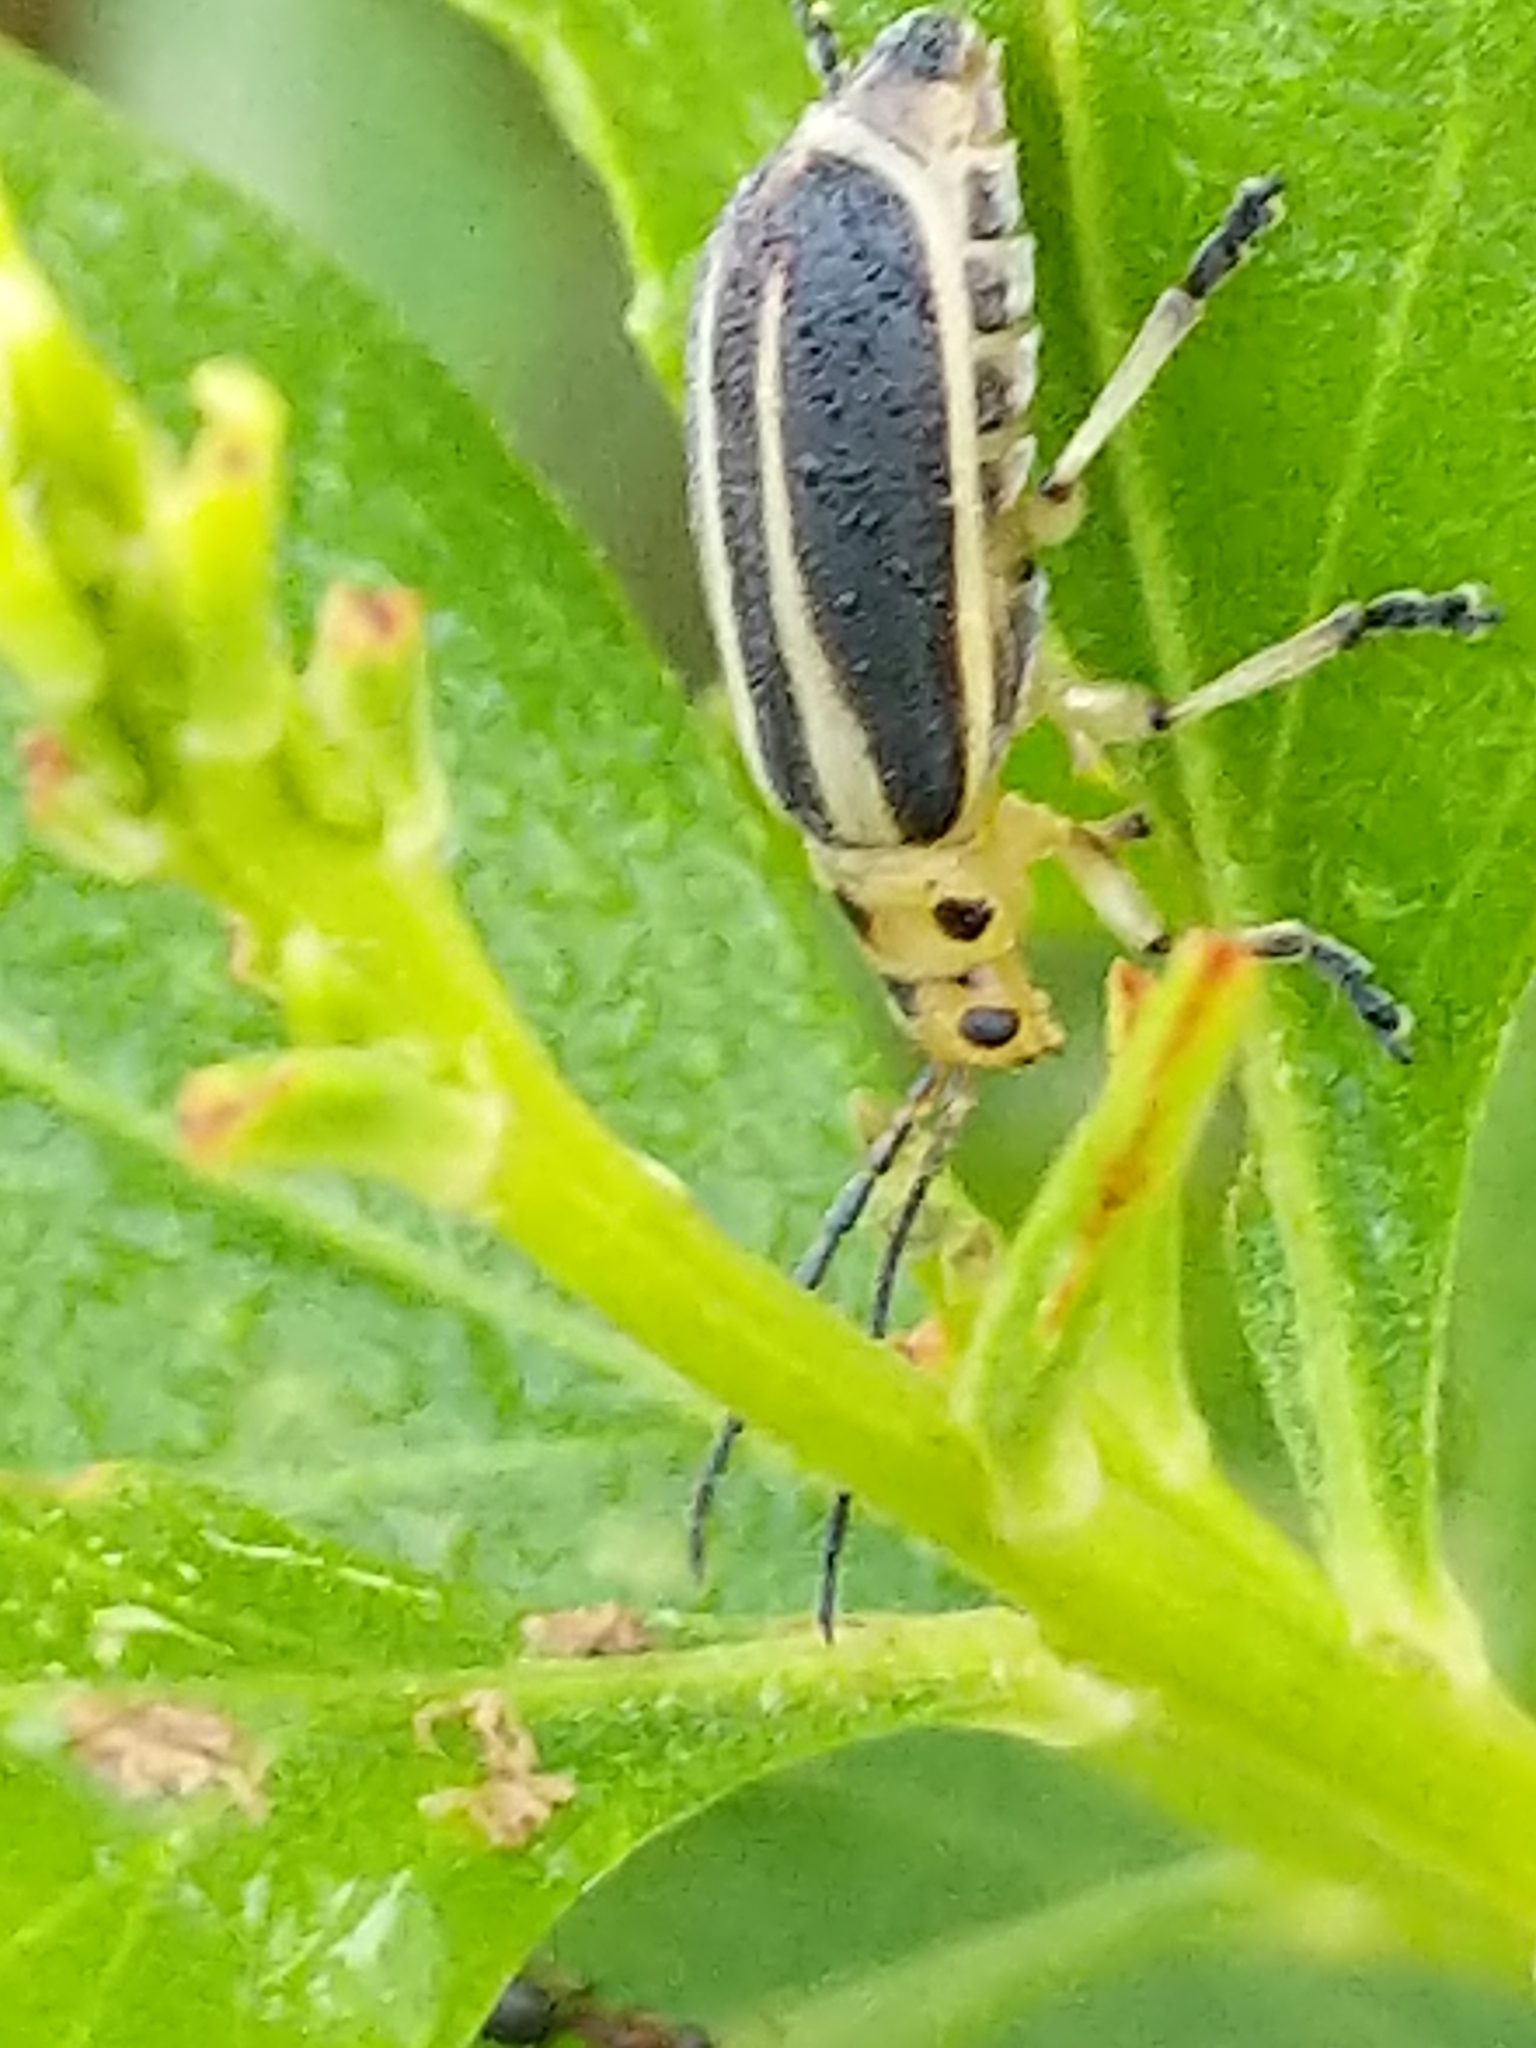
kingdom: Animalia
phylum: Arthropoda
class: Insecta
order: Coleoptera
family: Chrysomelidae
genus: Trirhabda
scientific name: Trirhabda bacharidis
